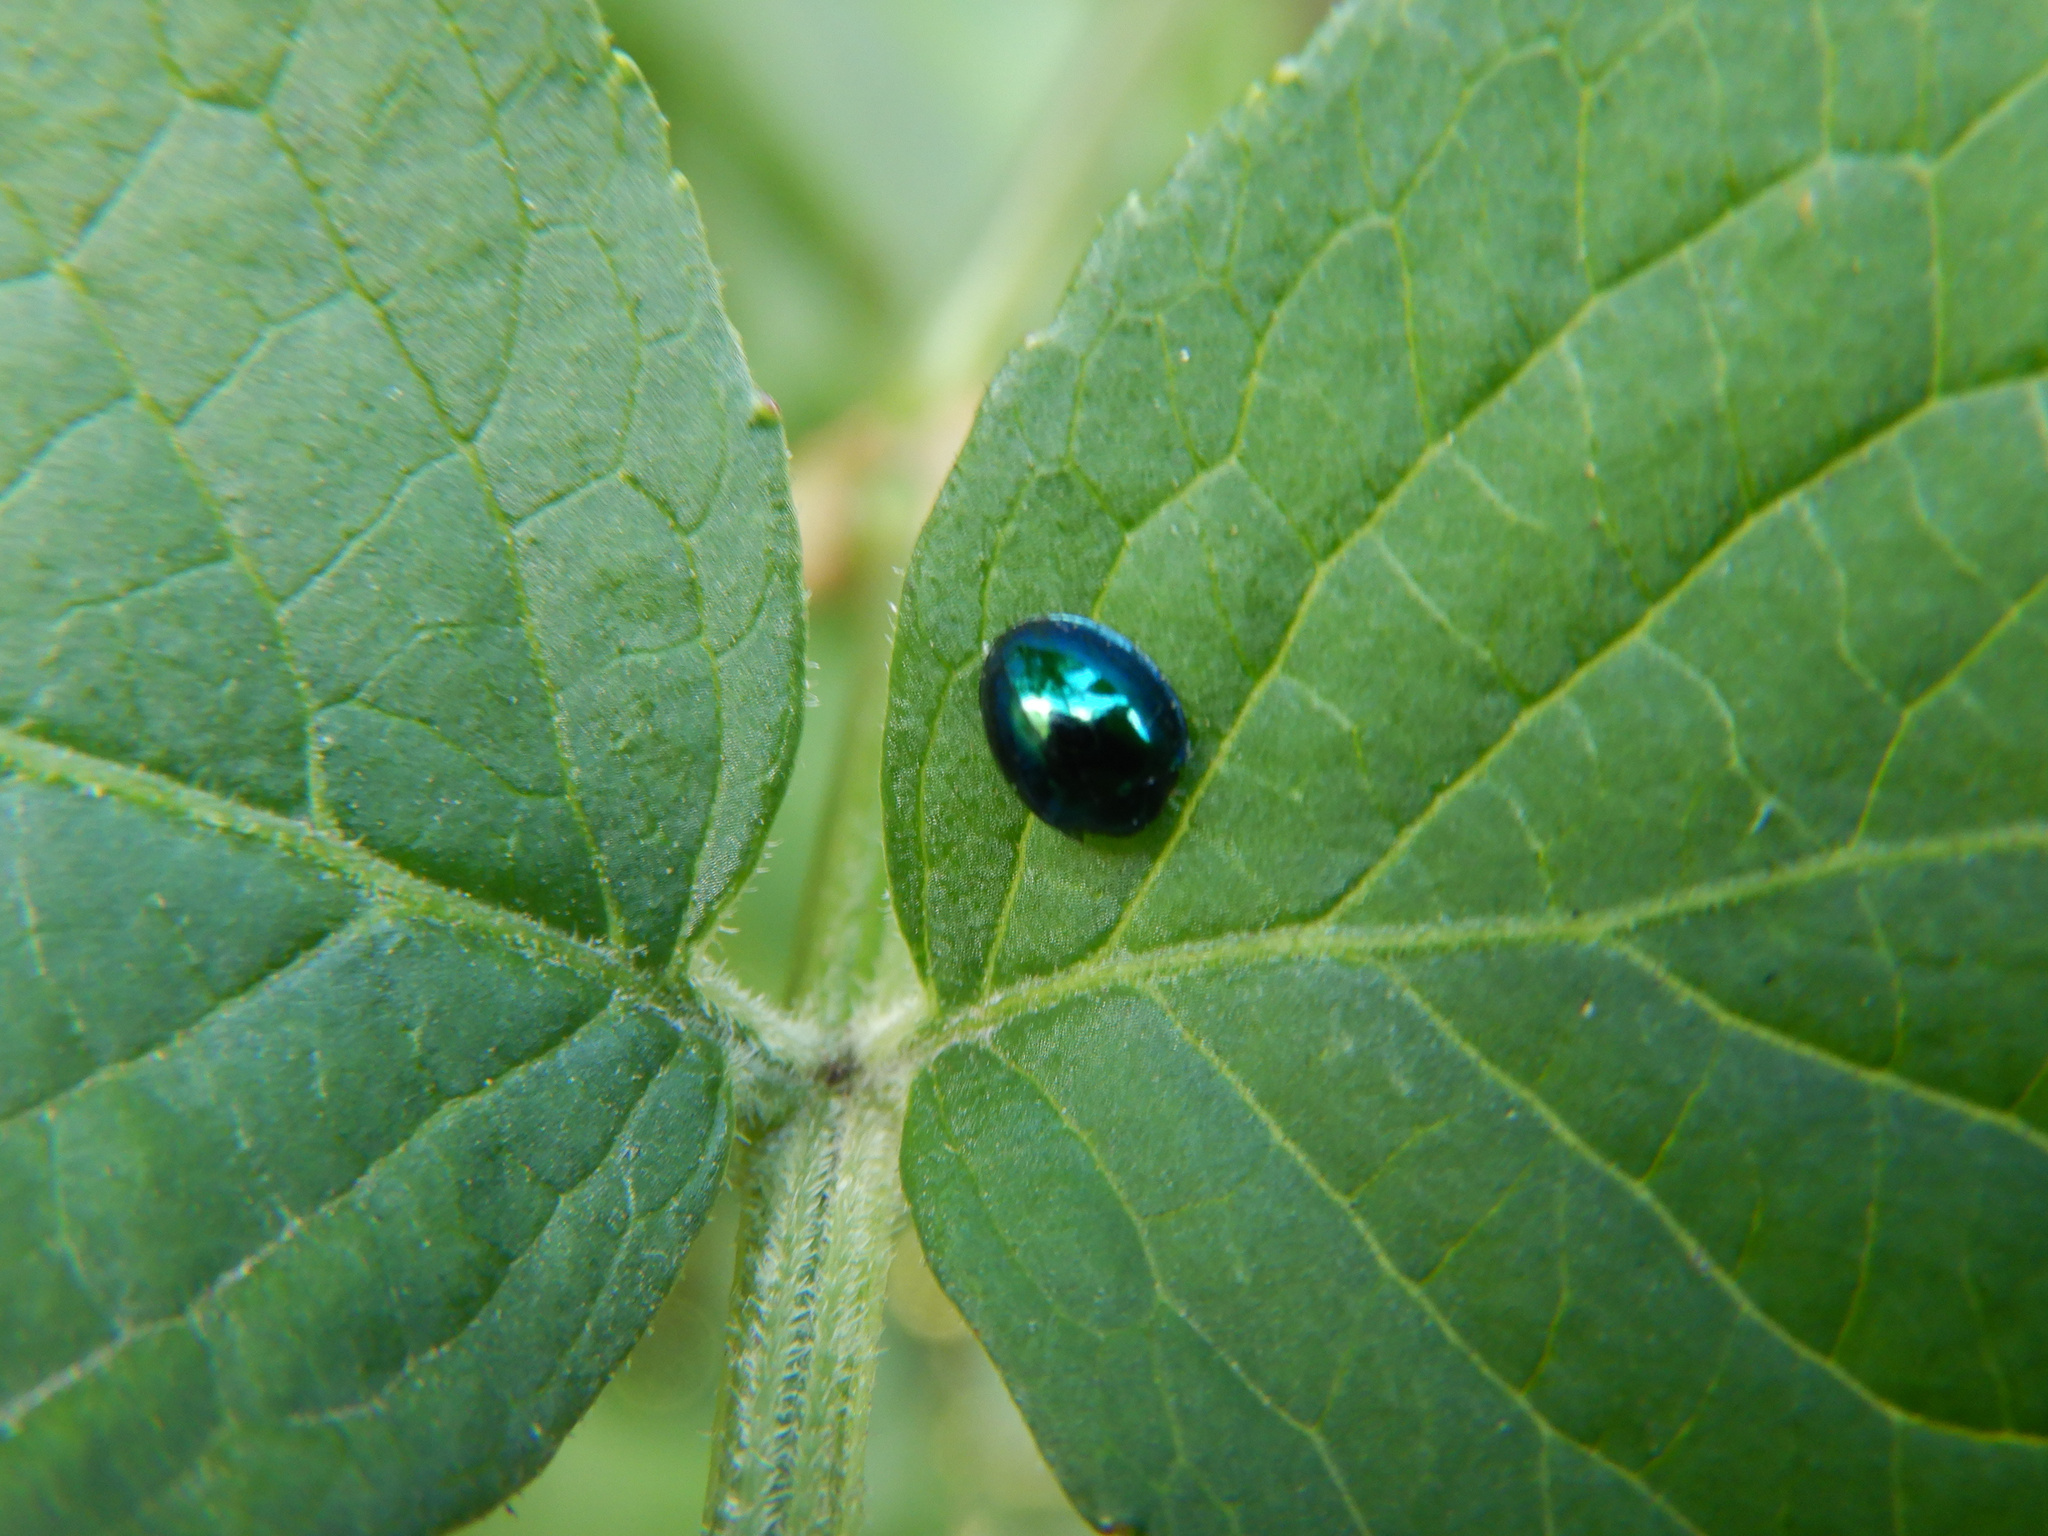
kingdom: Animalia
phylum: Arthropoda
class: Insecta
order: Coleoptera
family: Coccinellidae
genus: Halmus
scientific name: Halmus chalybeus
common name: Steel blue ladybird beetle
